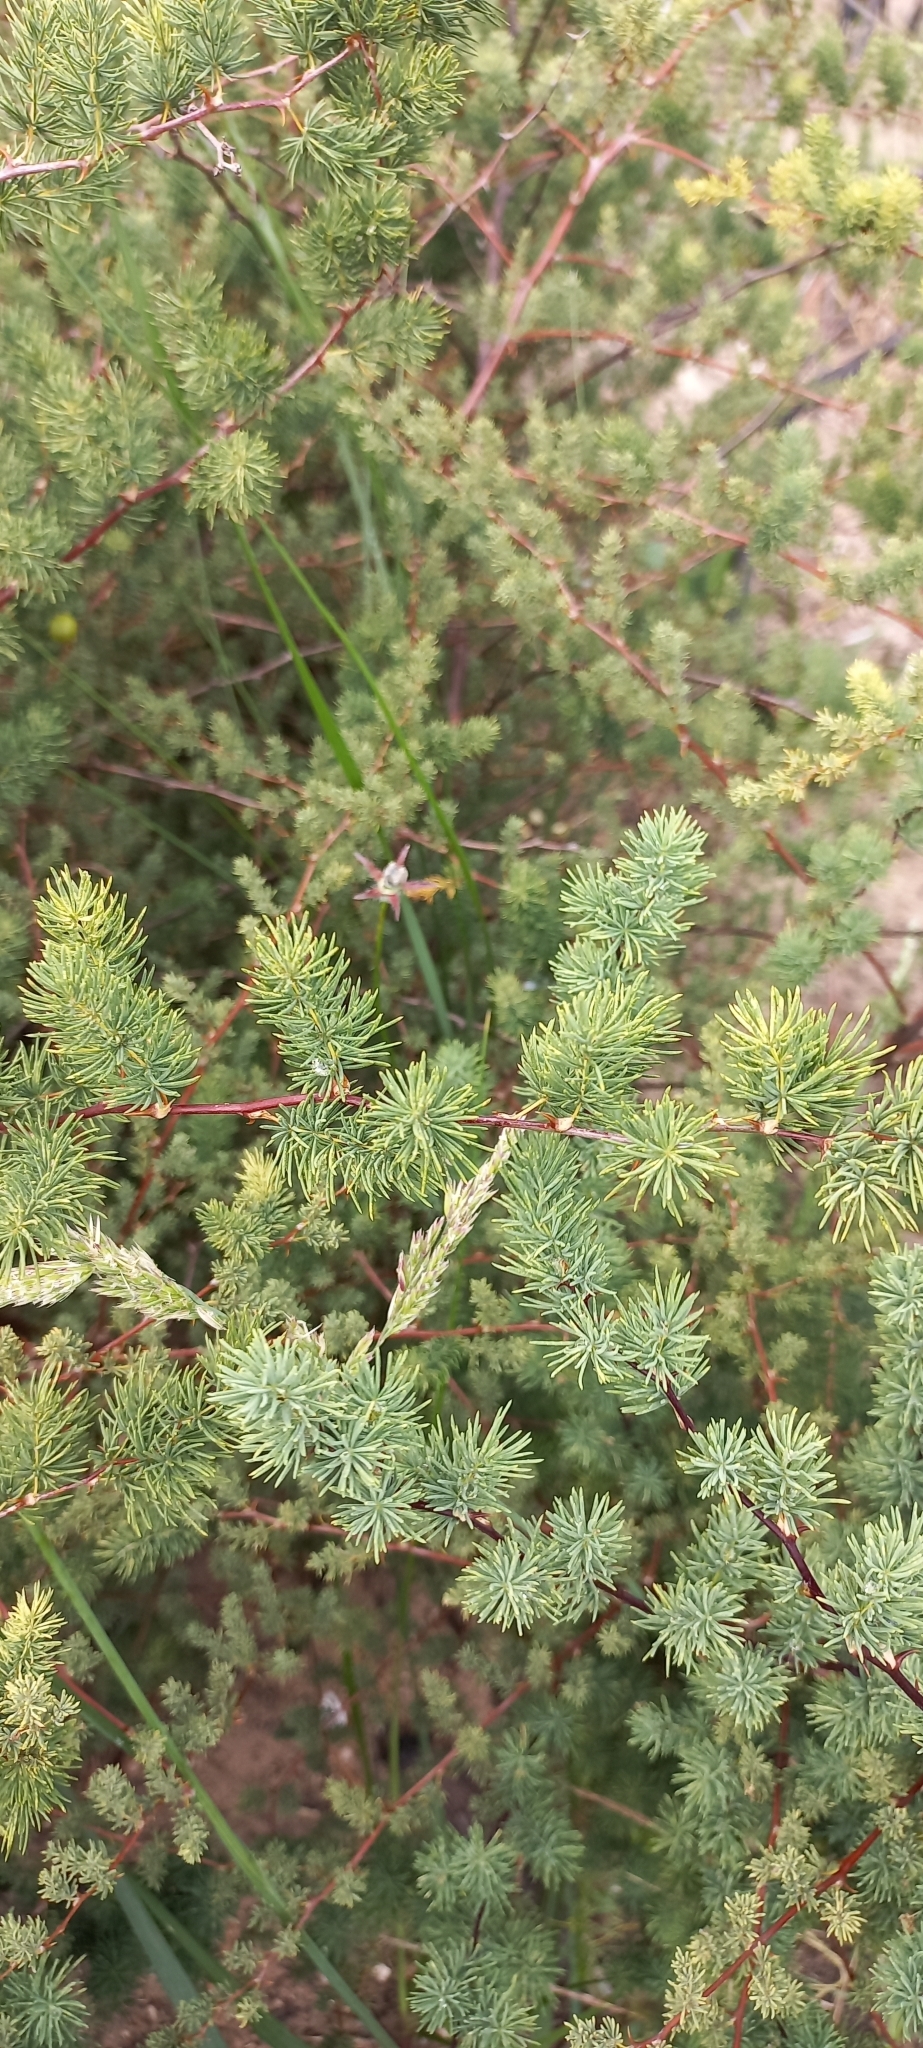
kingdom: Plantae
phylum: Tracheophyta
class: Liliopsida
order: Asparagales
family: Asparagaceae
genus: Asparagus
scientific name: Asparagus rubicundus
